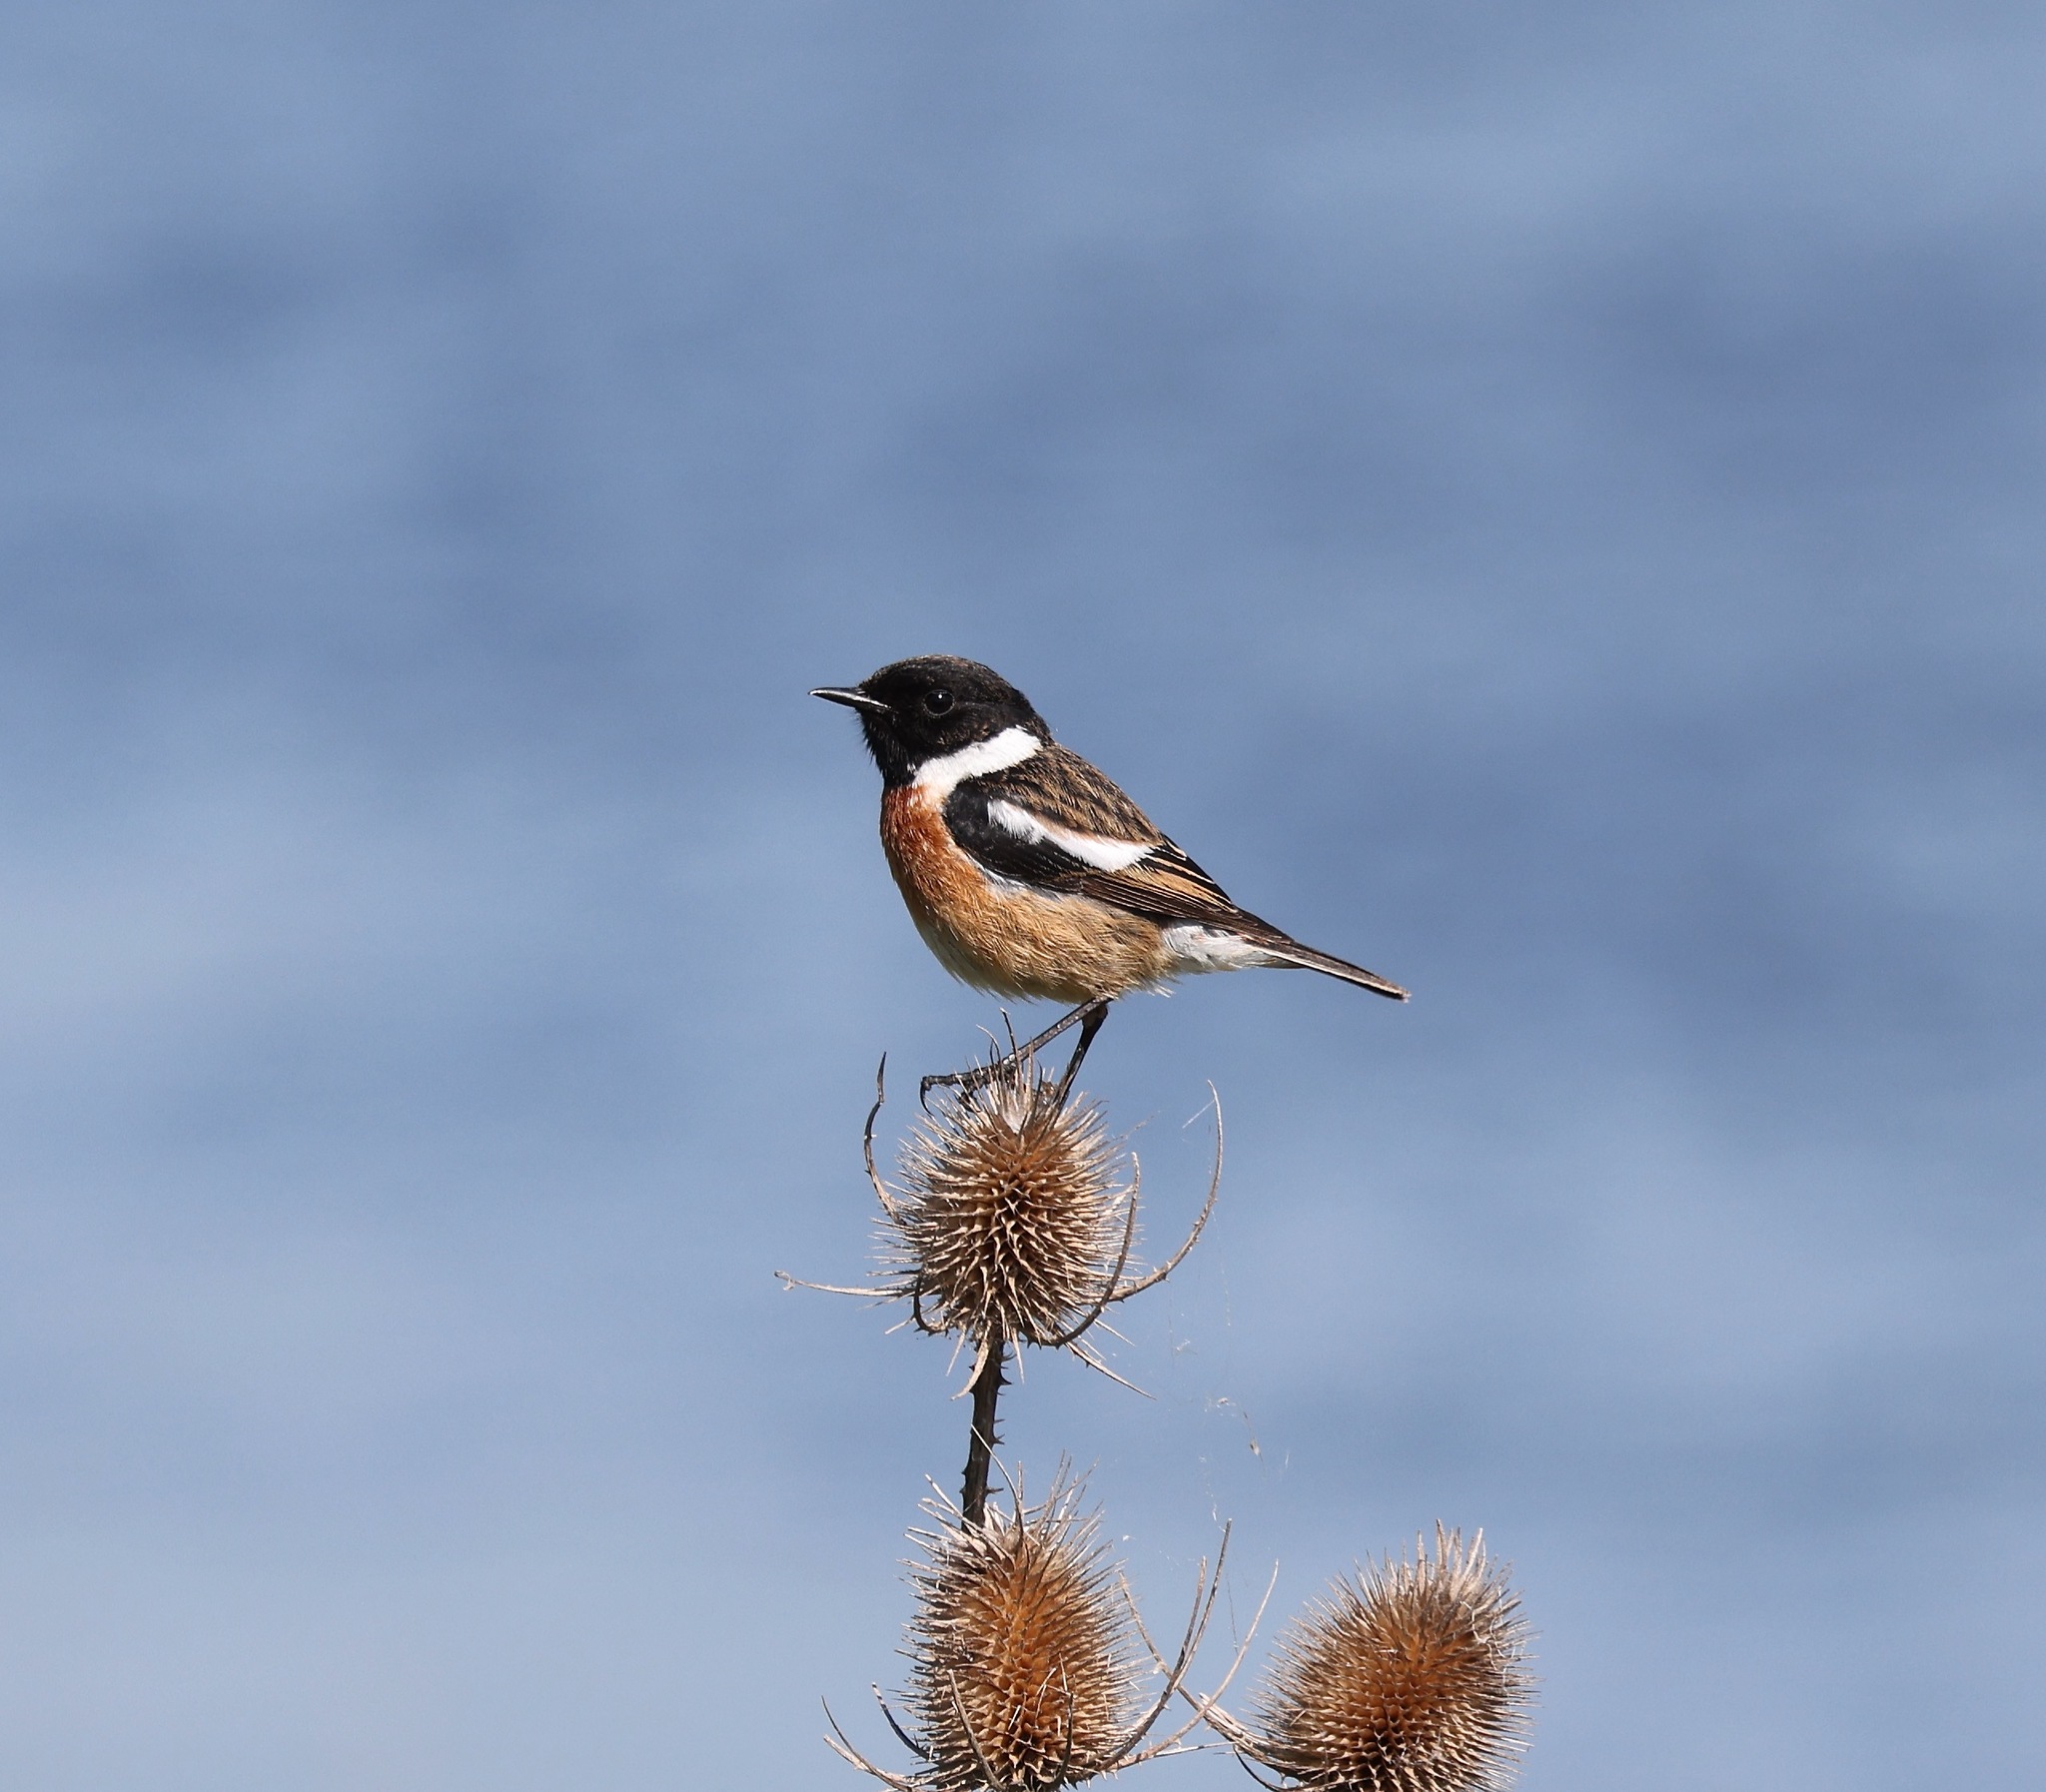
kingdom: Animalia
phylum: Chordata
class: Aves
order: Passeriformes
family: Muscicapidae
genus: Saxicola
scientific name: Saxicola rubicola
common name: European stonechat
